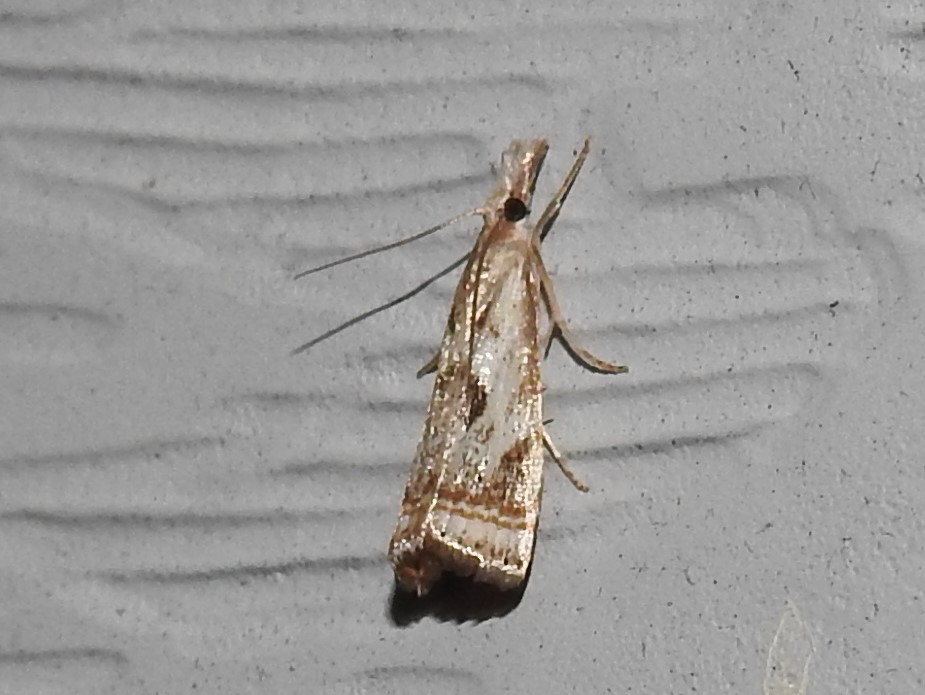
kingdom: Animalia
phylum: Arthropoda
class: Insecta
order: Lepidoptera
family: Crambidae
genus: Microcrambus
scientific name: Microcrambus elegans
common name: Elegant grass-veneer
